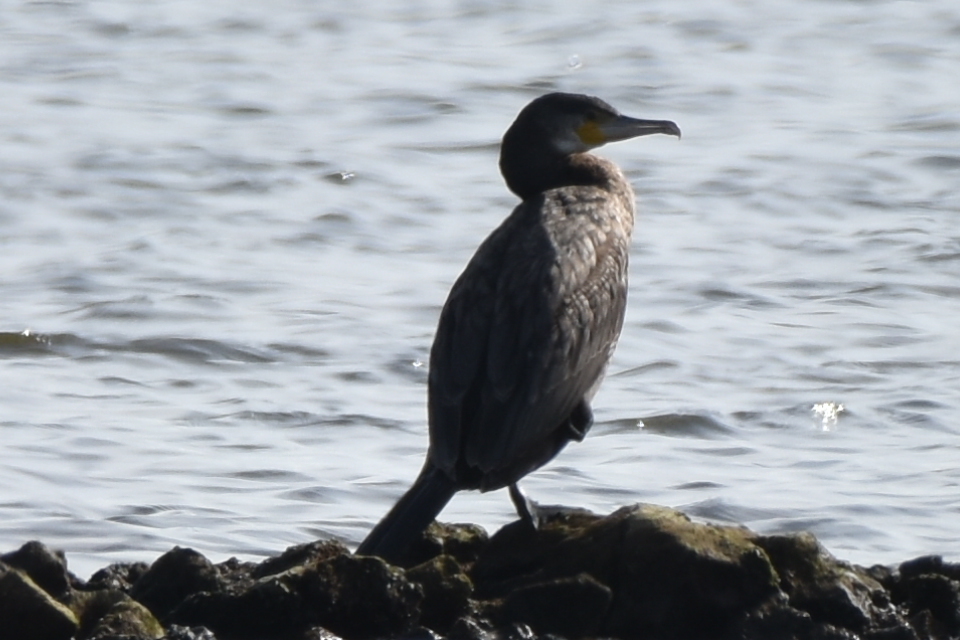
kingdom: Animalia
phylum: Chordata
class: Aves
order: Suliformes
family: Phalacrocoracidae
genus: Phalacrocorax
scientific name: Phalacrocorax carbo
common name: Great cormorant
